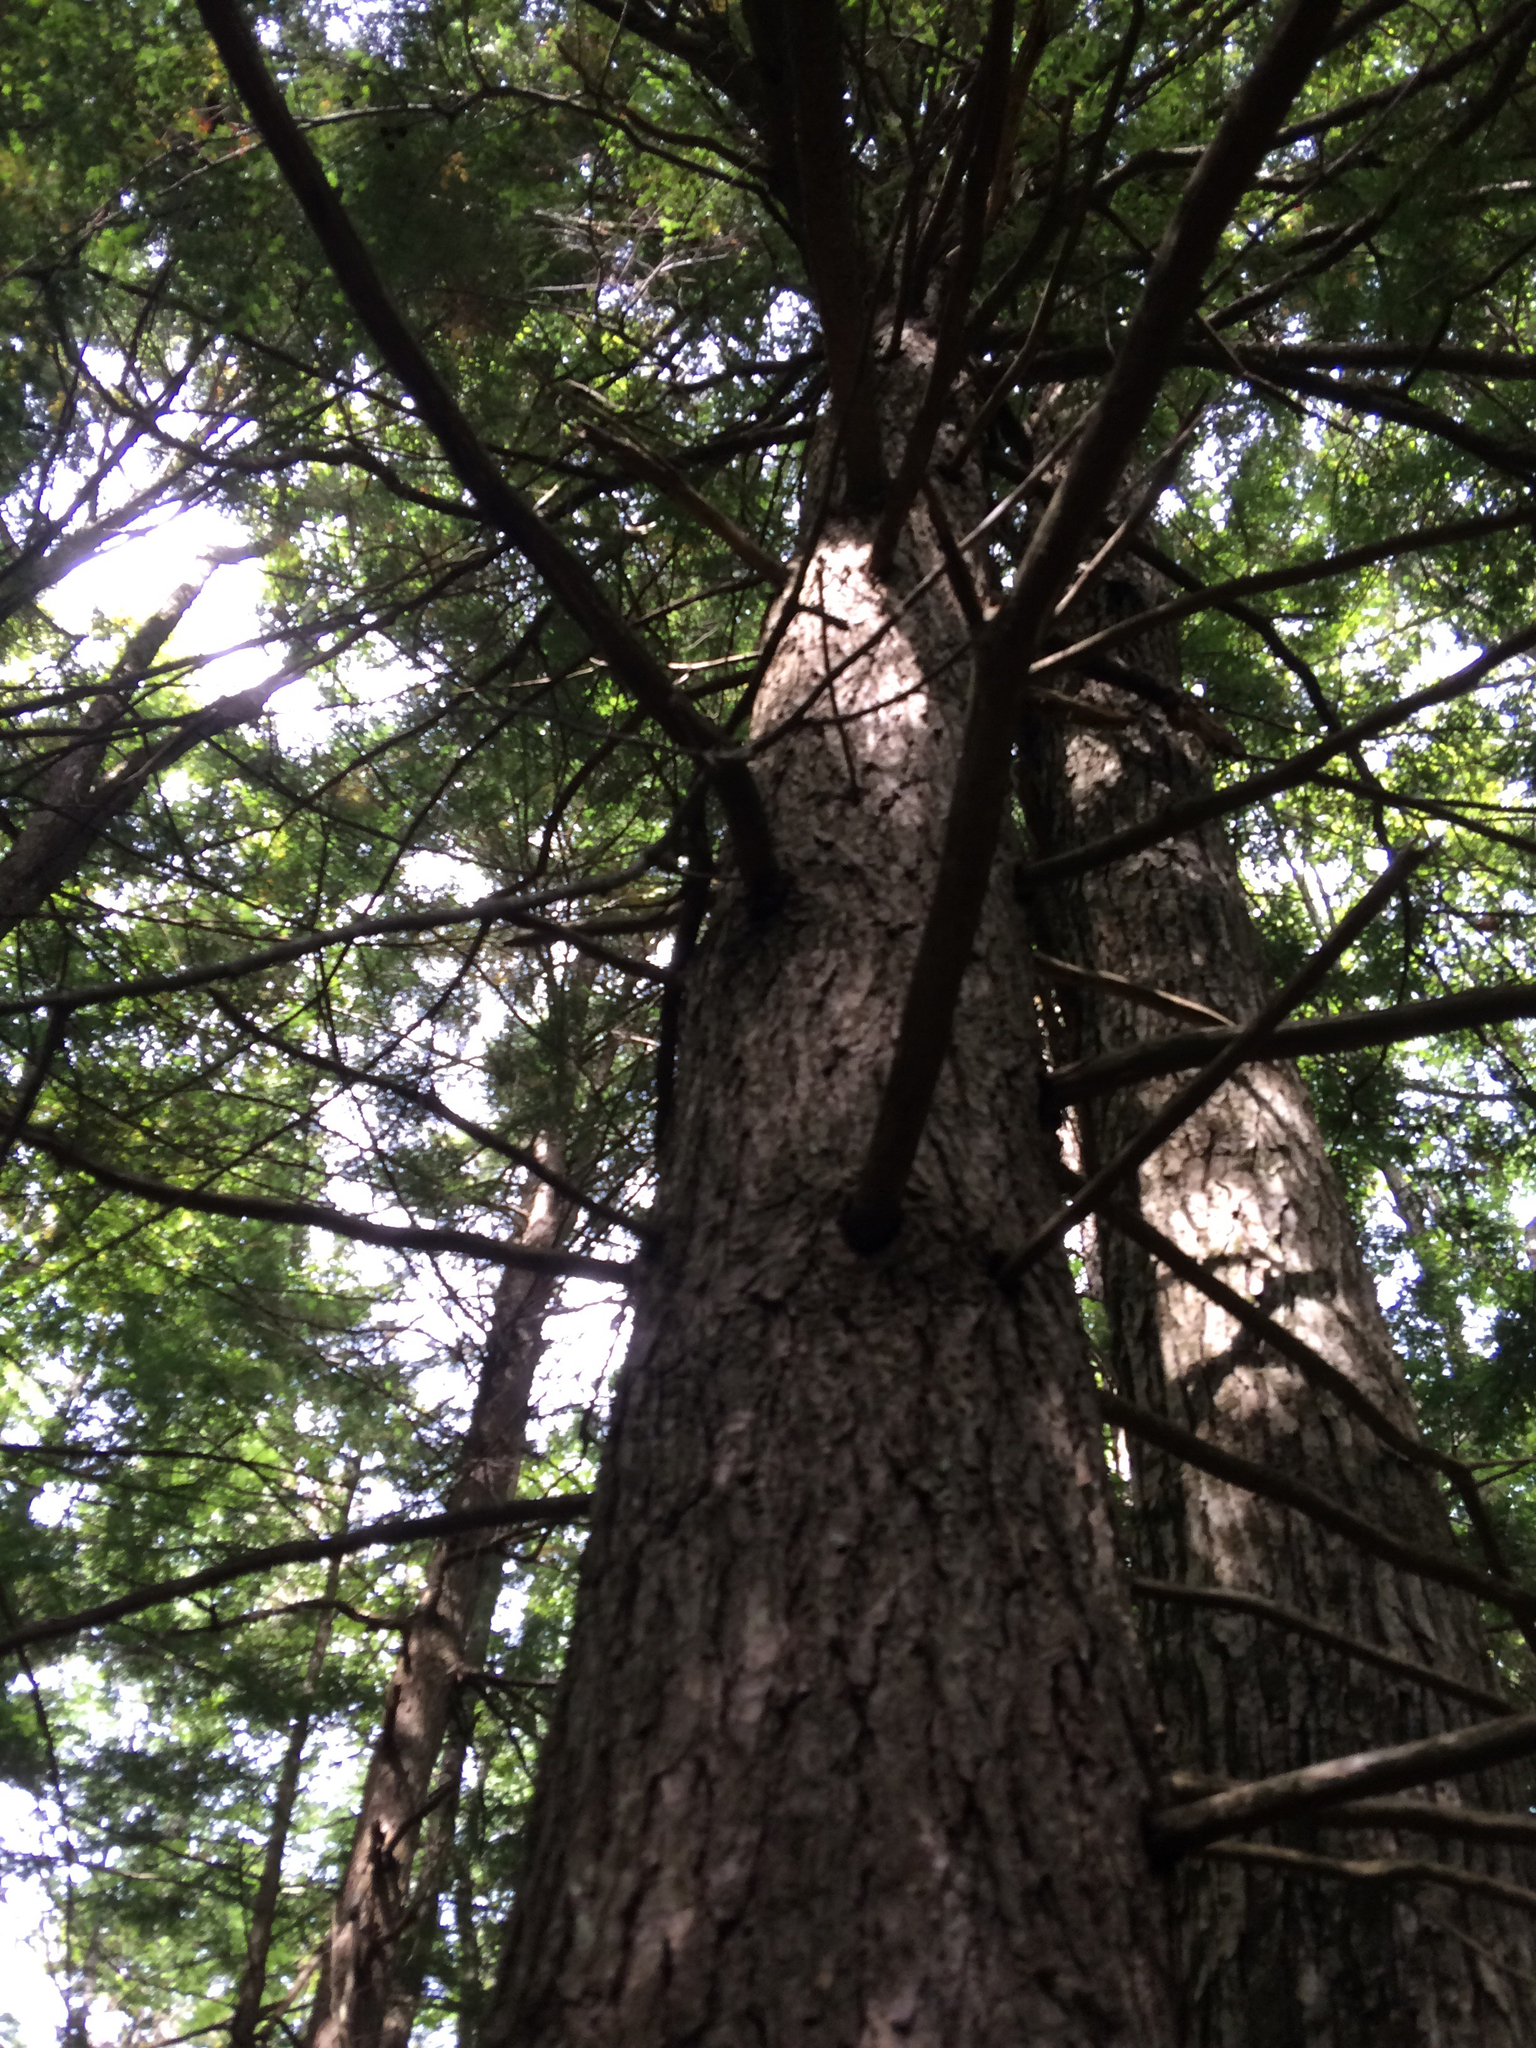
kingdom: Plantae
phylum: Tracheophyta
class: Pinopsida
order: Pinales
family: Pinaceae
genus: Tsuga
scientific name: Tsuga canadensis
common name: Eastern hemlock
